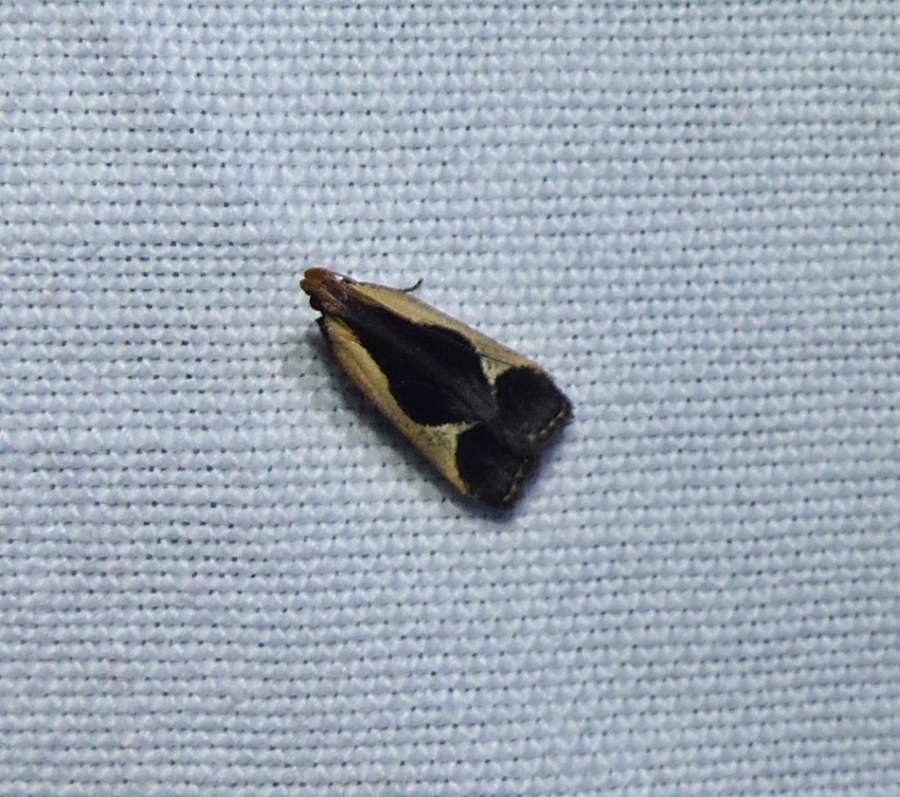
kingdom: Animalia
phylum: Arthropoda
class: Insecta
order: Lepidoptera
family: Gelechiidae
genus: Dichomeris
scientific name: Dichomeris flavocostella
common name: Cream-edged dichomeris moth
